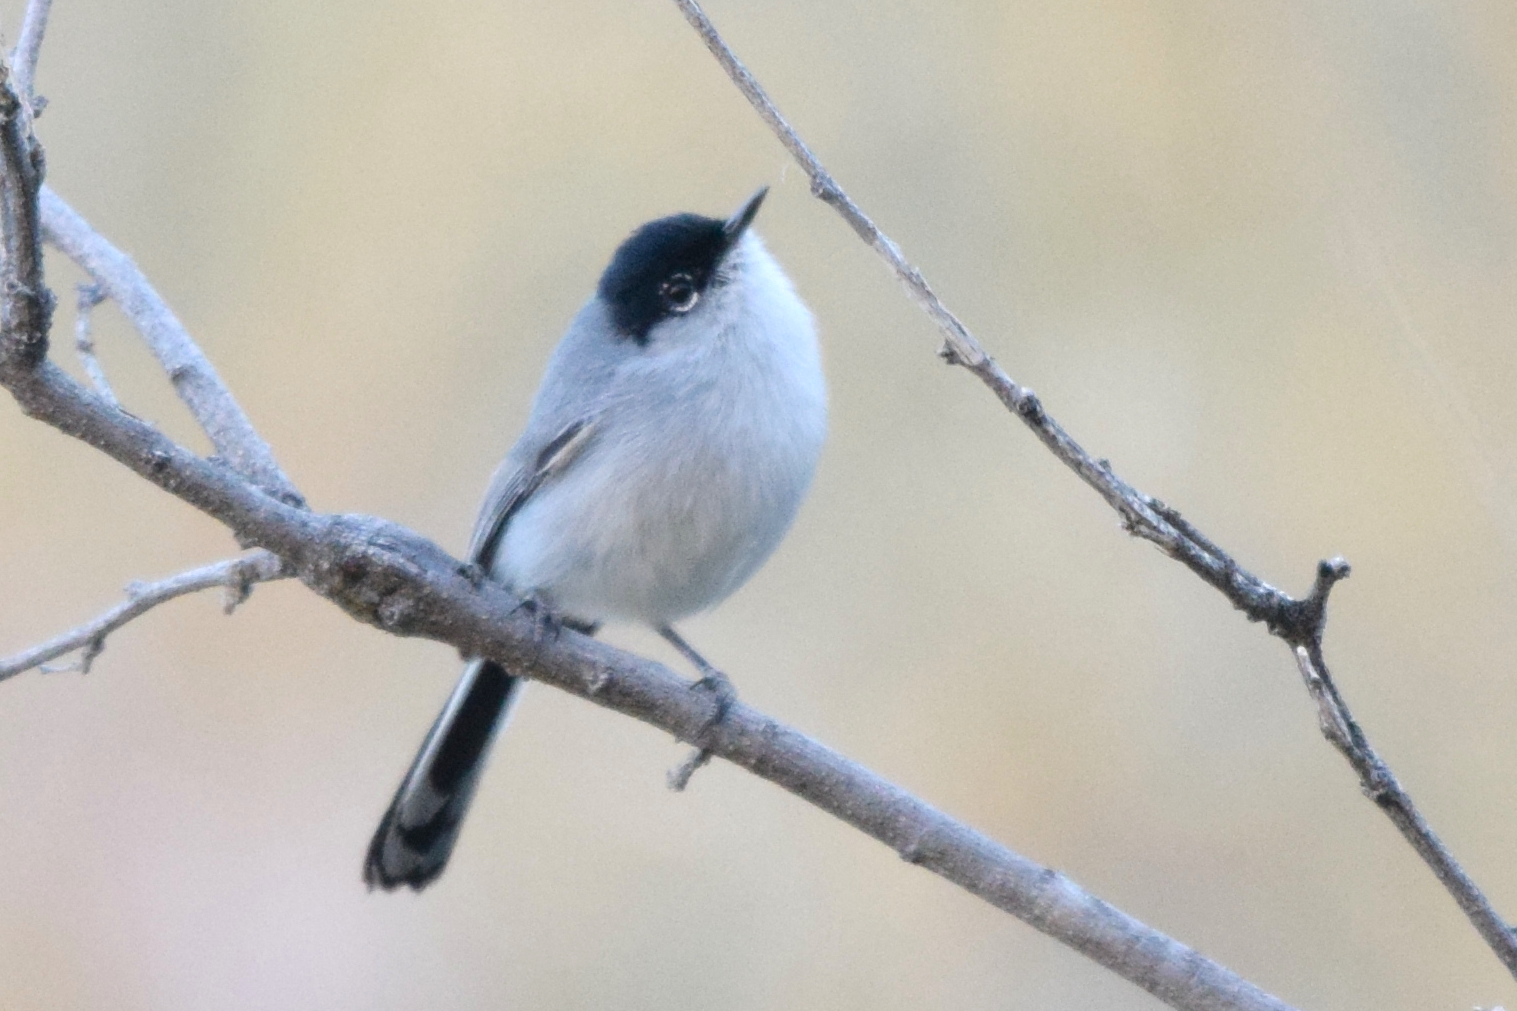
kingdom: Animalia
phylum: Chordata
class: Aves
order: Passeriformes
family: Polioptilidae
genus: Polioptila
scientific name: Polioptila melanura
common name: Black-tailed gnatcatcher
